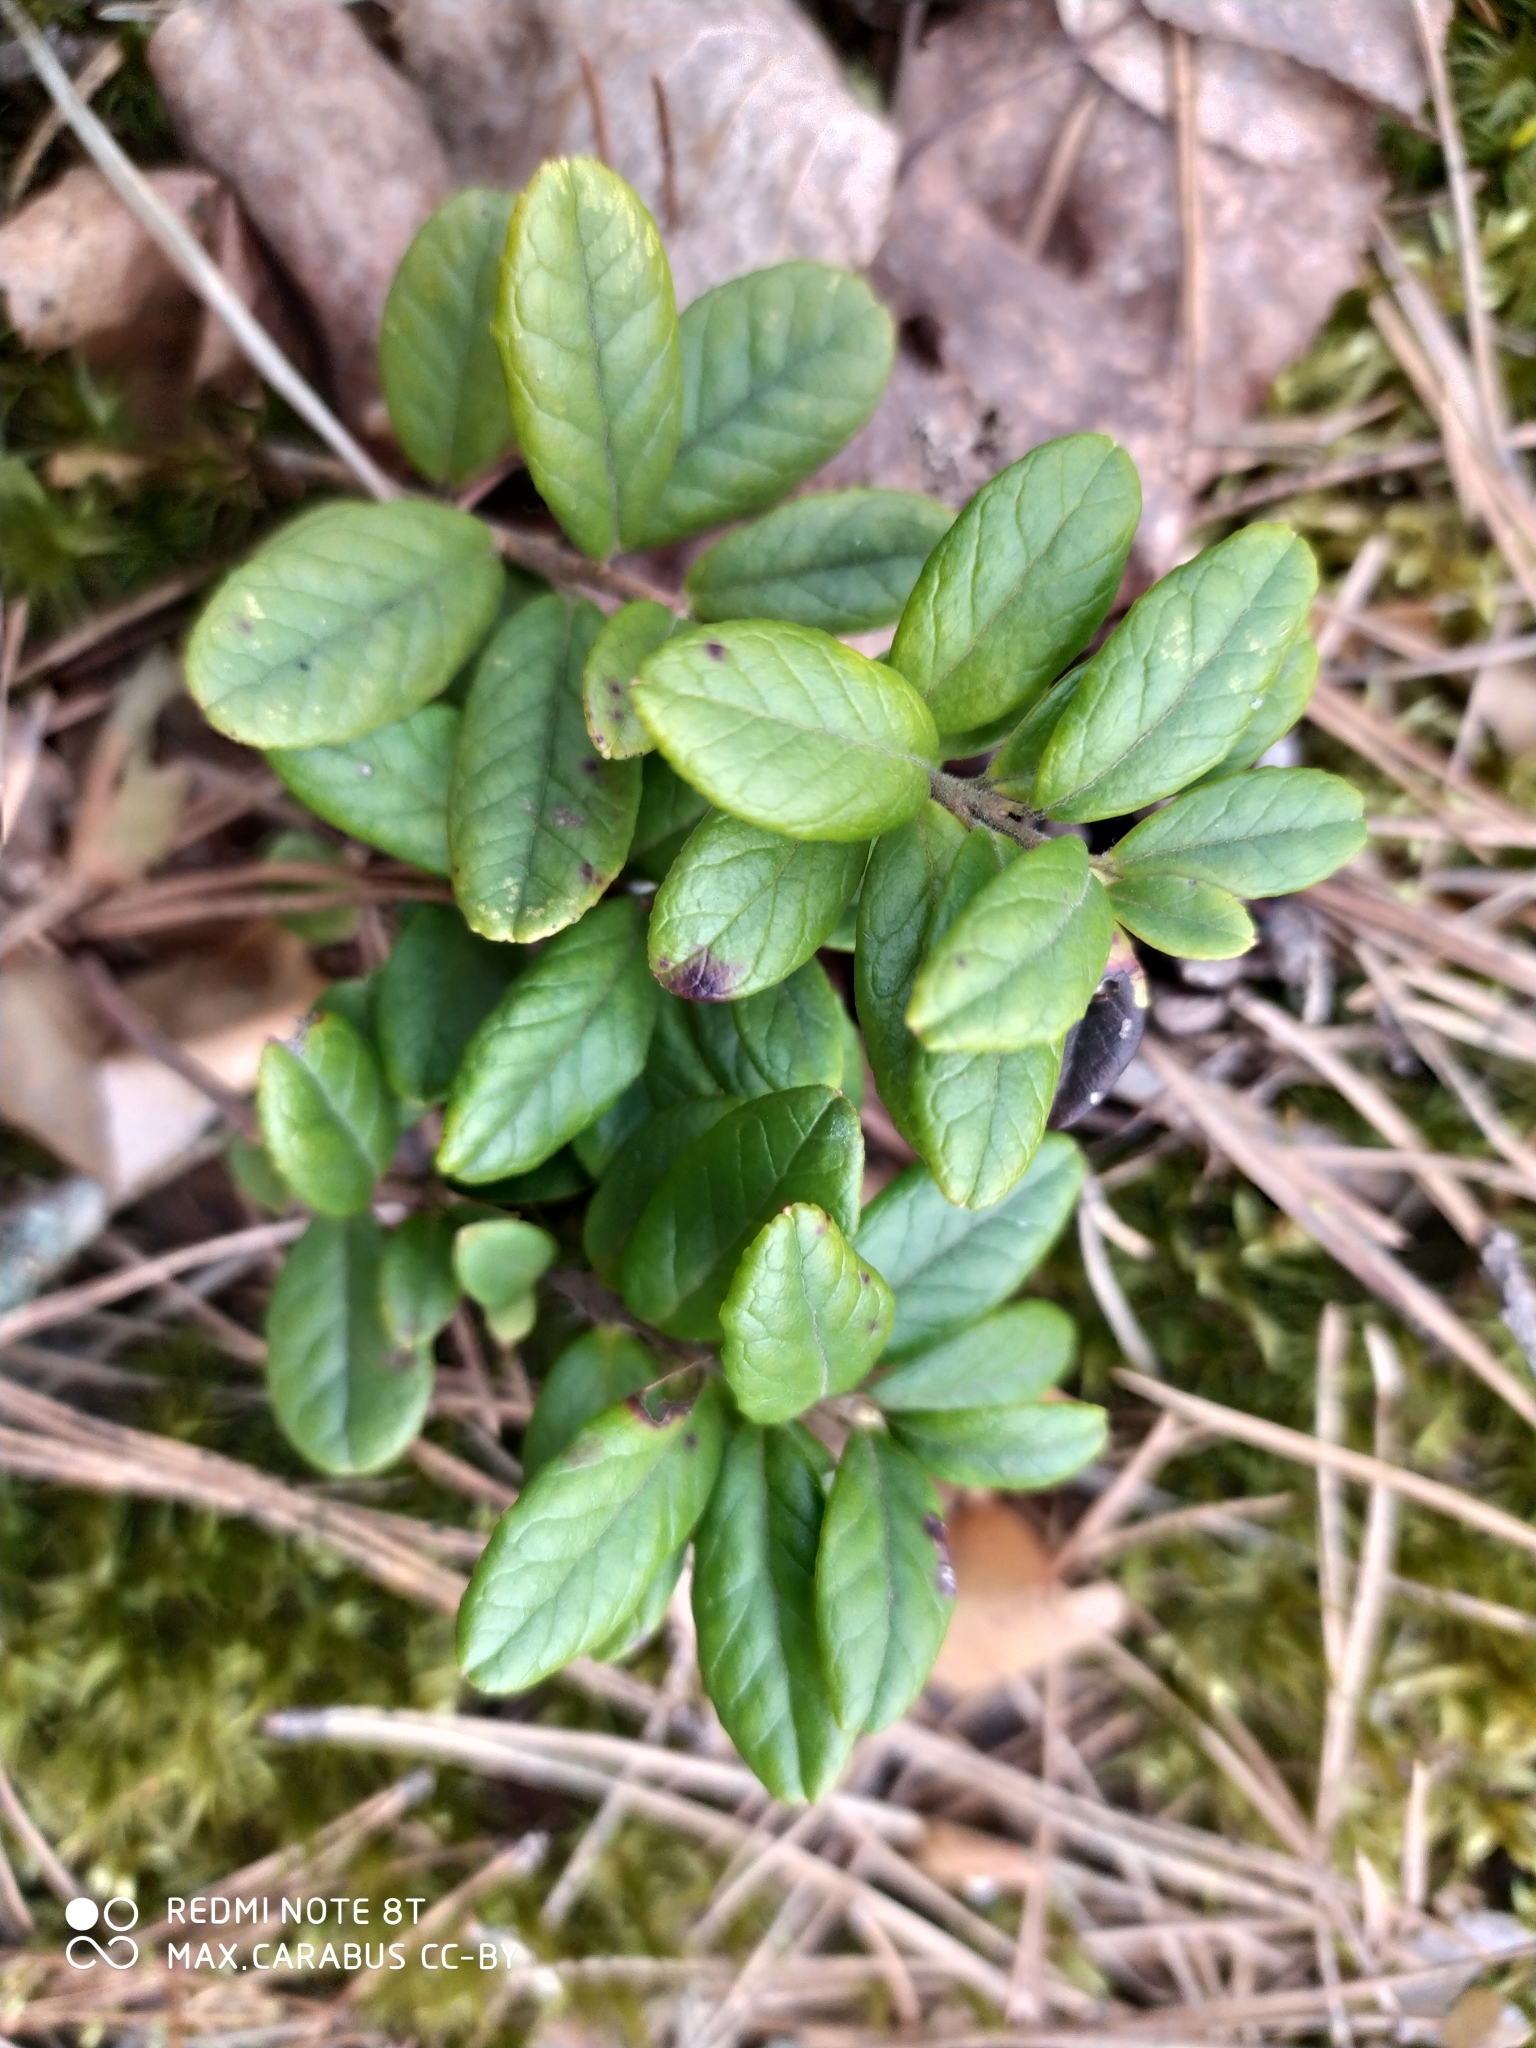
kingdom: Plantae
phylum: Tracheophyta
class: Magnoliopsida
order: Ericales
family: Ericaceae
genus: Vaccinium
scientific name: Vaccinium vitis-idaea
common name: Cowberry
